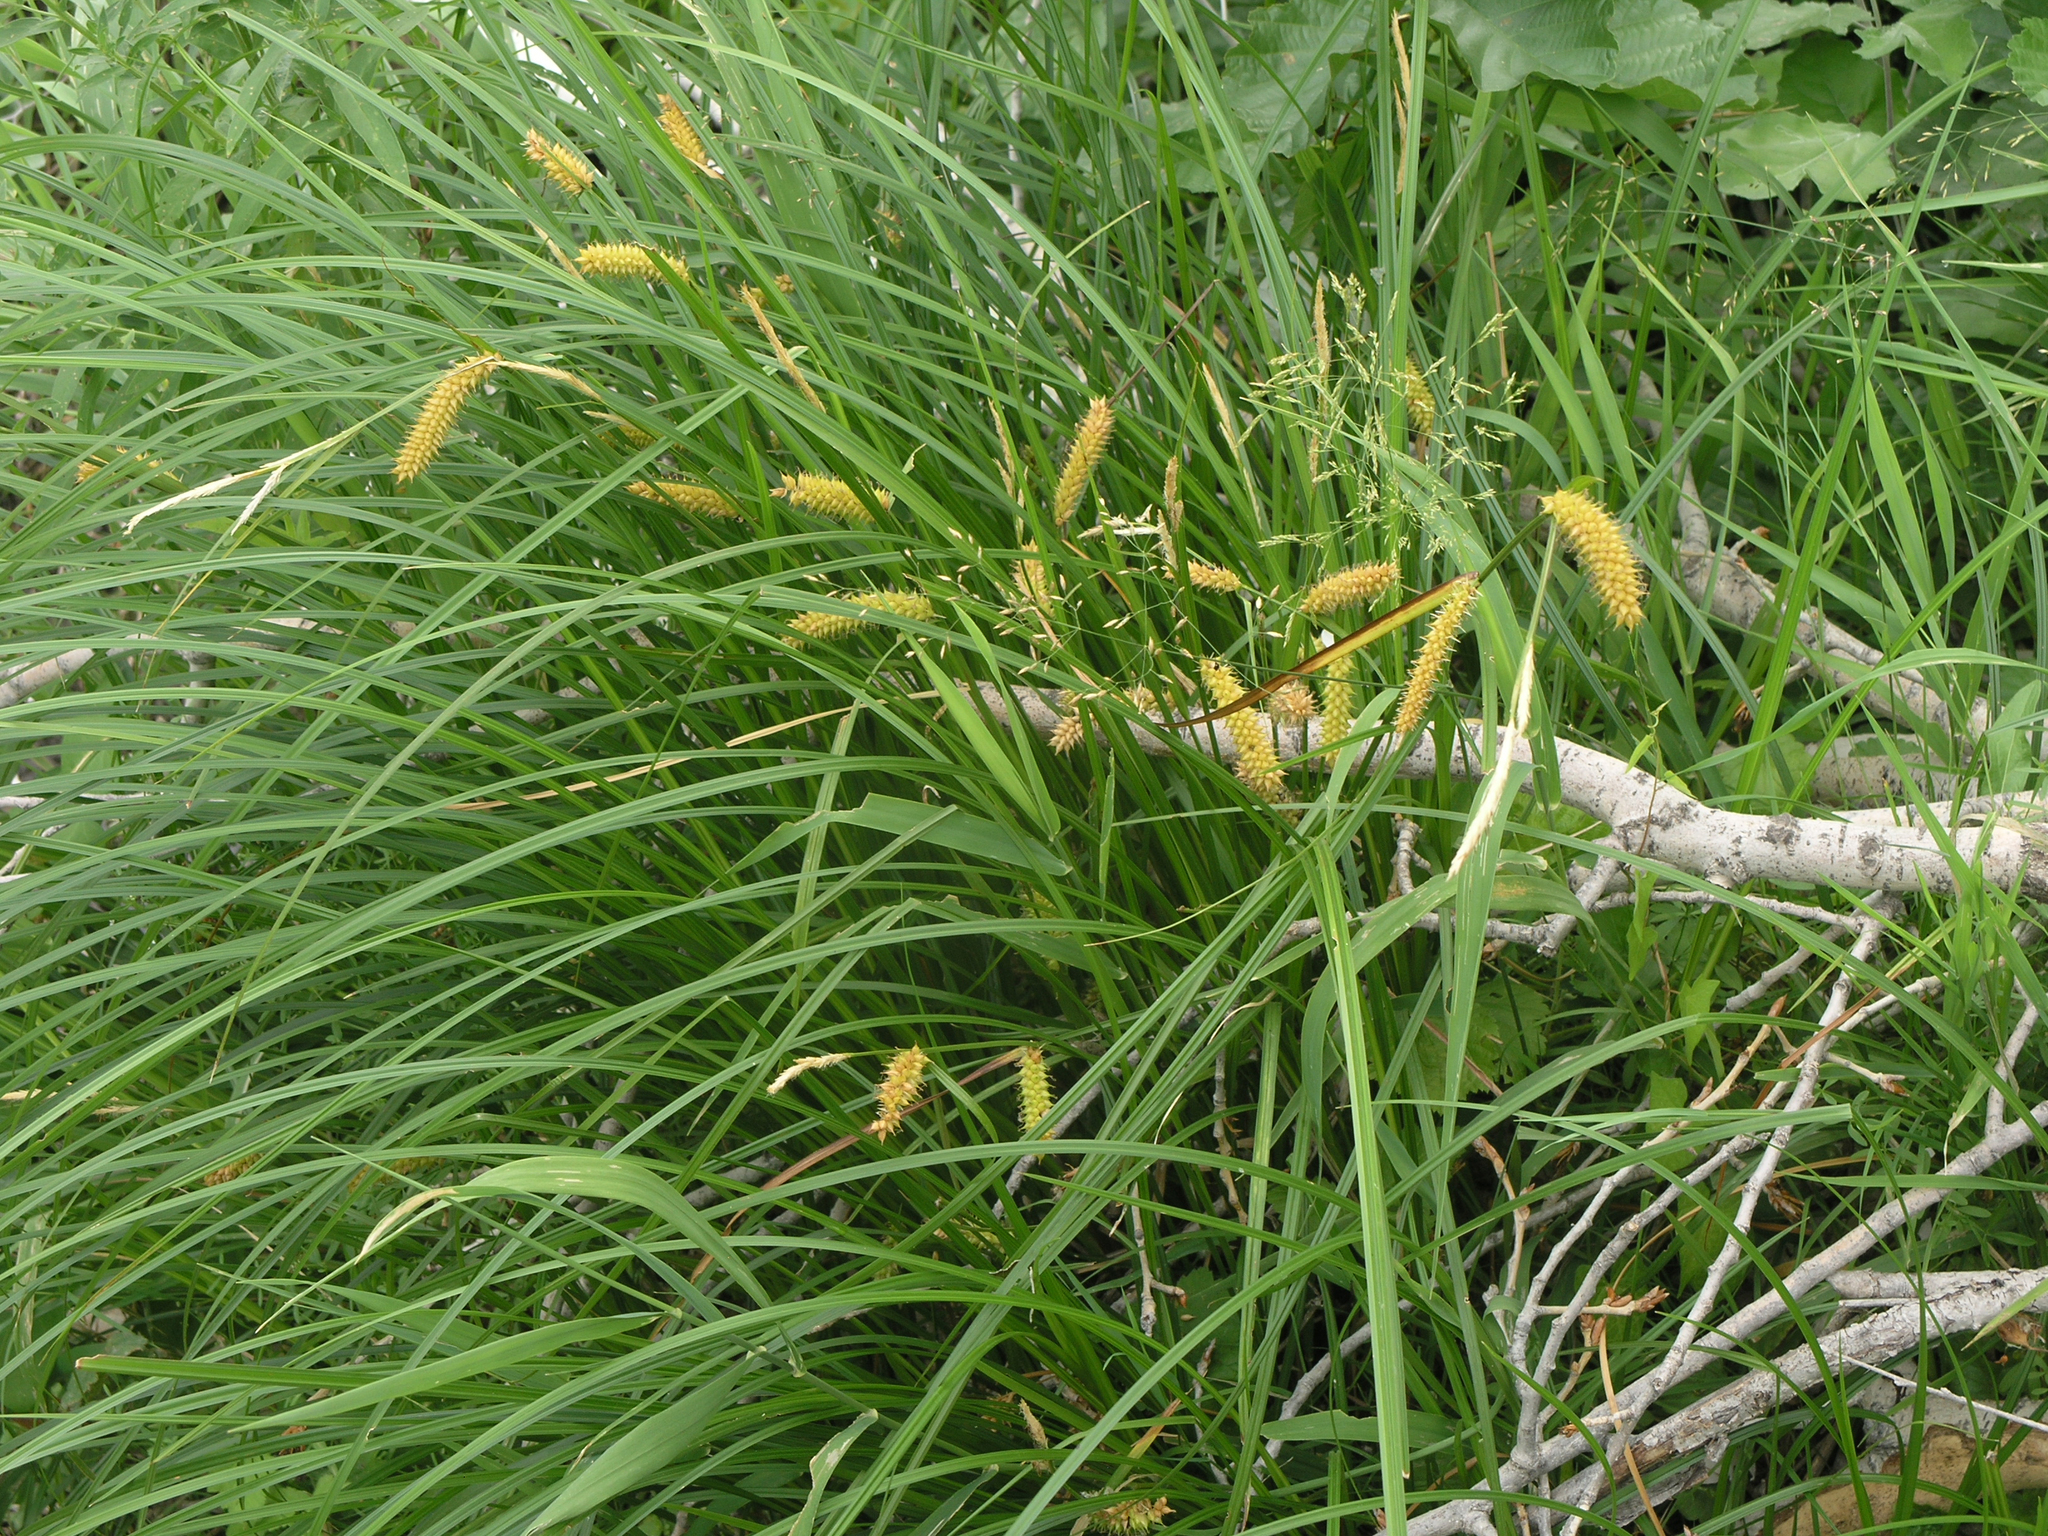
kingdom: Plantae
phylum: Tracheophyta
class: Liliopsida
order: Poales
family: Cyperaceae
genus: Carex
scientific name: Carex vesicaria
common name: Bladder-sedge
